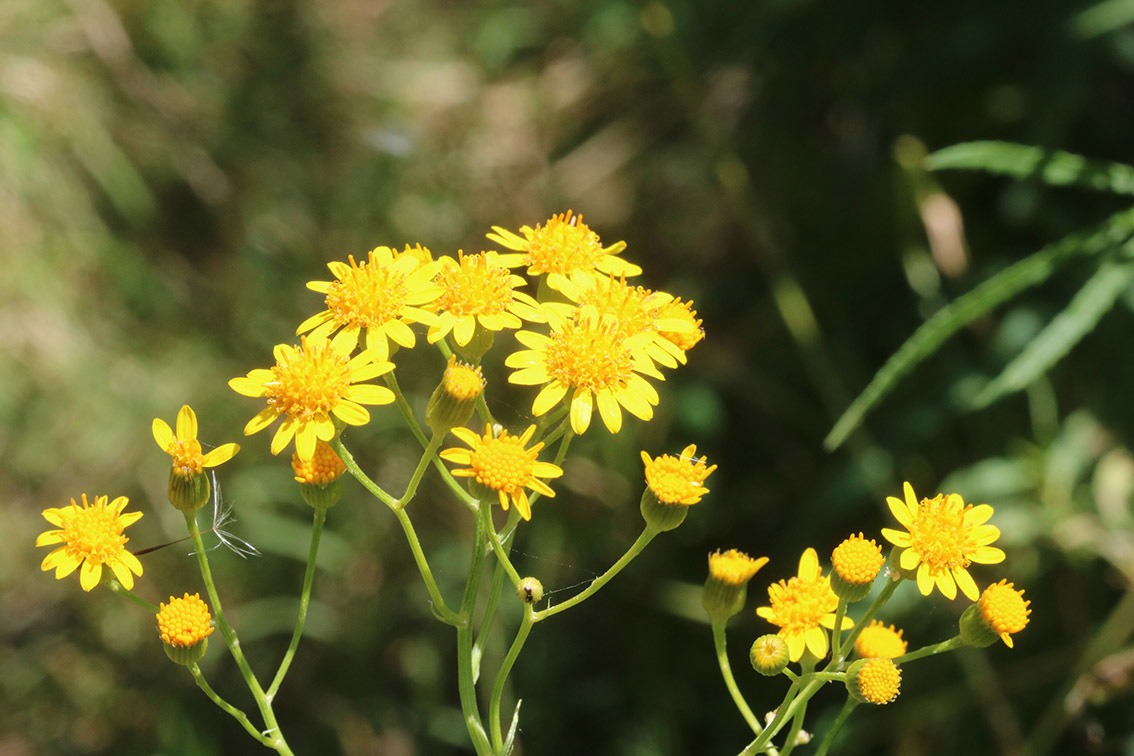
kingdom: Plantae
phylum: Tracheophyta
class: Magnoliopsida
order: Asterales
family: Asteraceae
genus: Senecio
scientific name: Senecio pterophorus
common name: Shoddy ragwort
